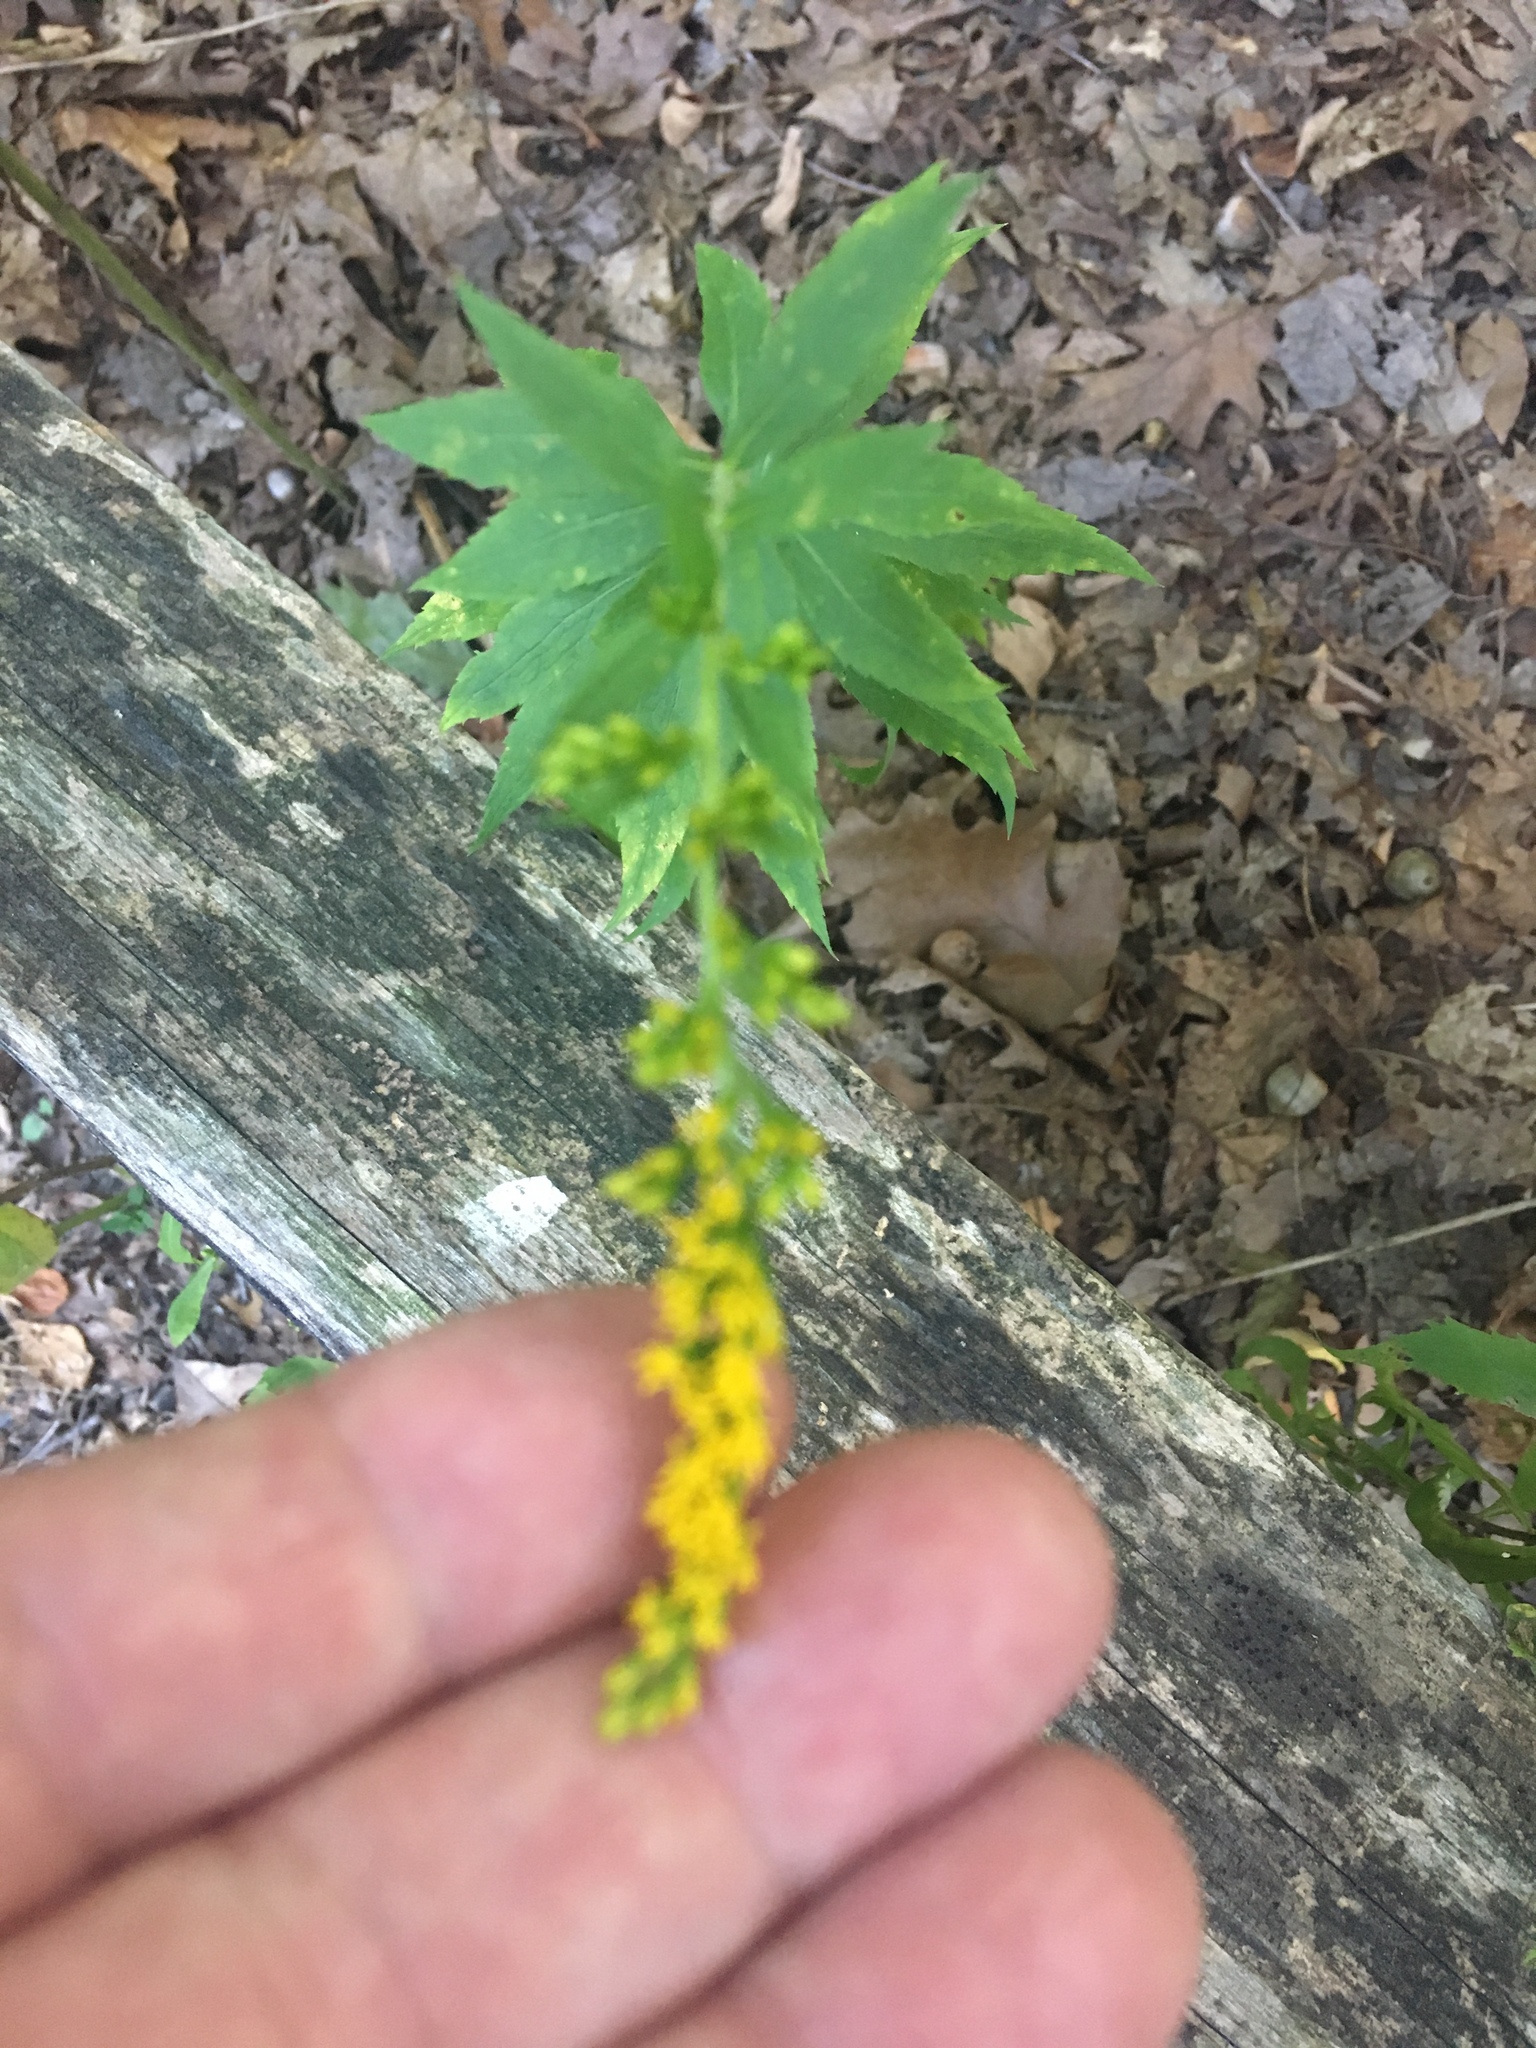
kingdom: Plantae
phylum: Tracheophyta
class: Magnoliopsida
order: Asterales
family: Asteraceae
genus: Solidago
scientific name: Solidago rugosa
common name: Rough-stemmed goldenrod
